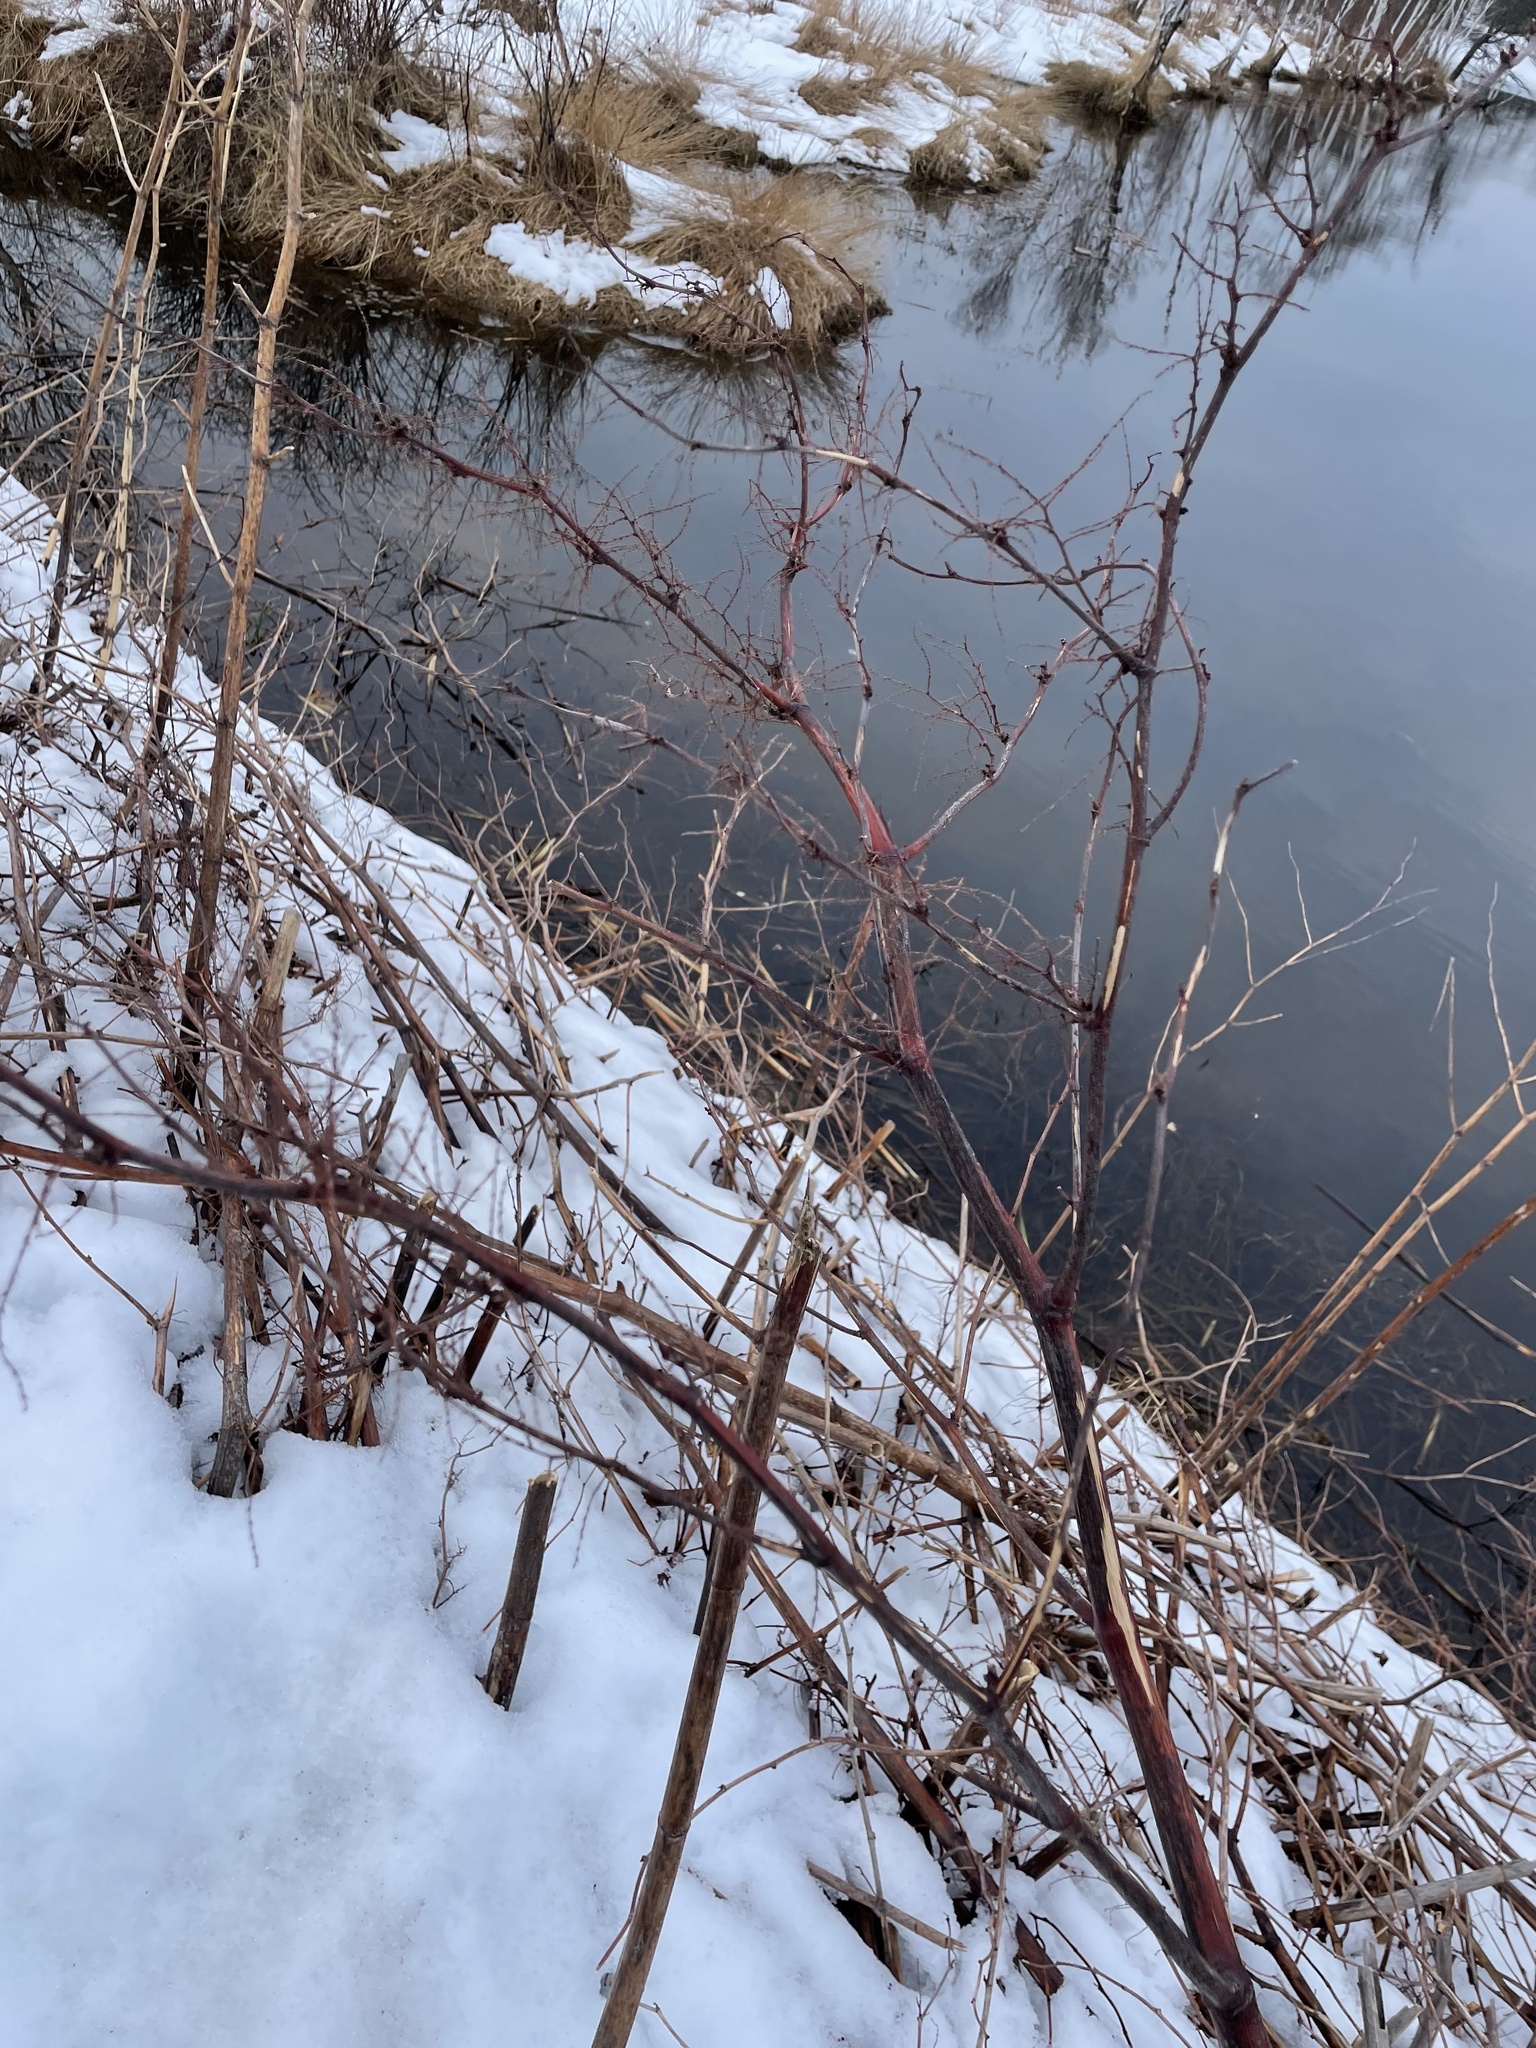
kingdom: Plantae
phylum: Tracheophyta
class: Magnoliopsida
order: Caryophyllales
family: Polygonaceae
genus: Reynoutria
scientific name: Reynoutria japonica
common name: Japanese knotweed
